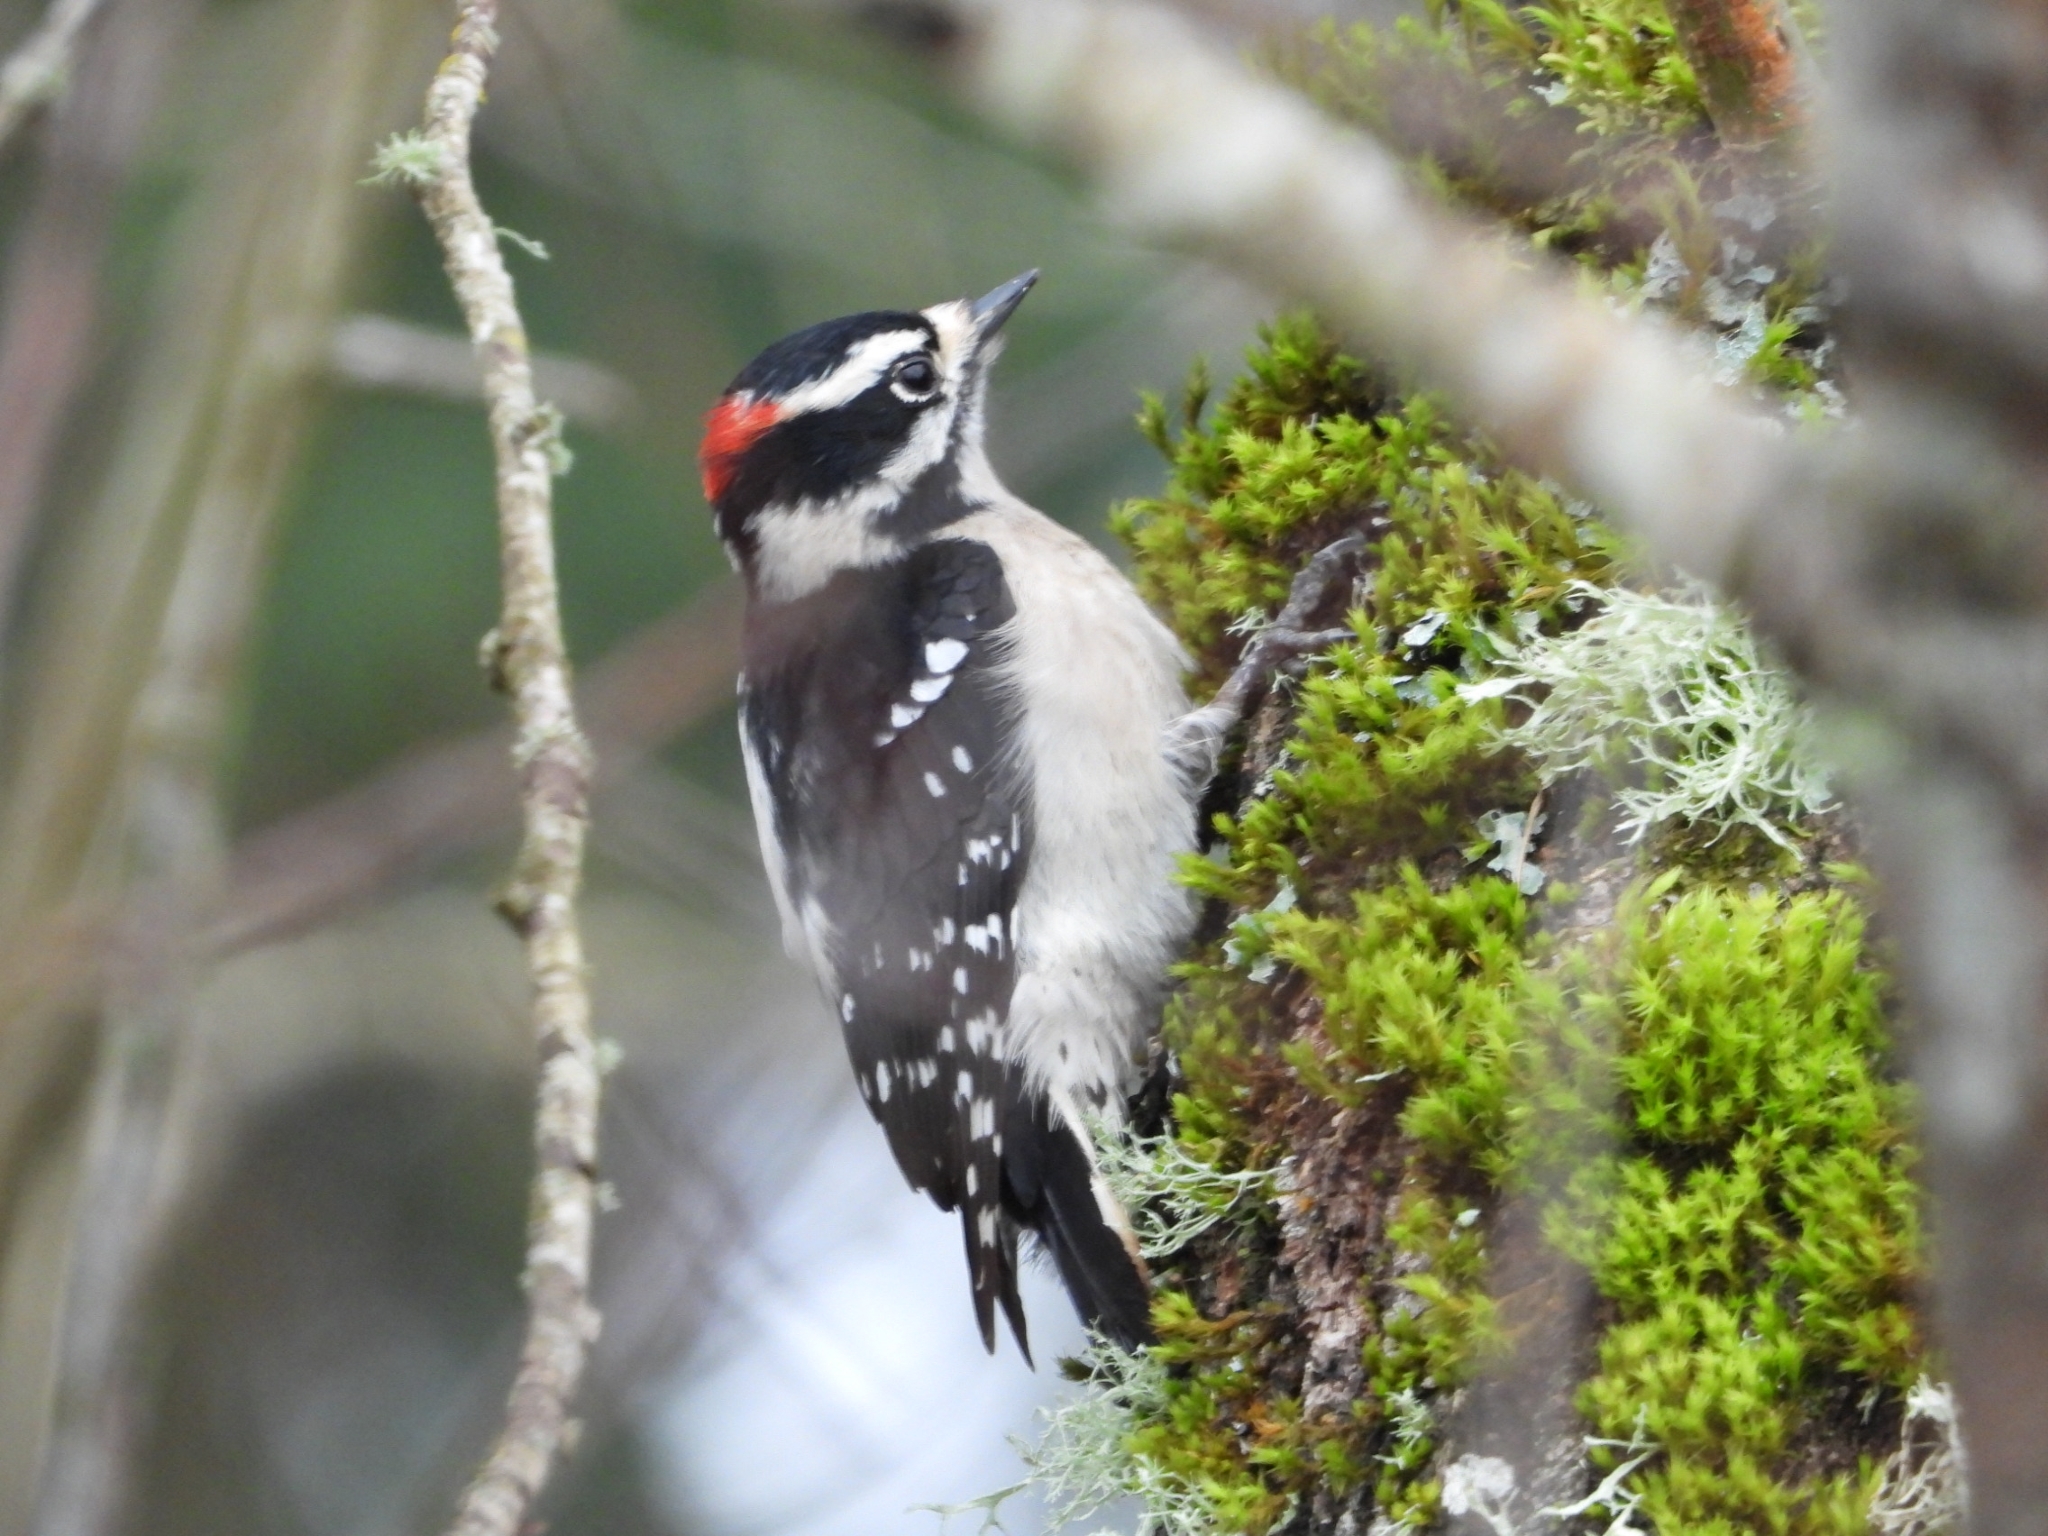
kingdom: Animalia
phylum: Chordata
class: Aves
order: Piciformes
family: Picidae
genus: Dryobates
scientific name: Dryobates pubescens
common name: Downy woodpecker
